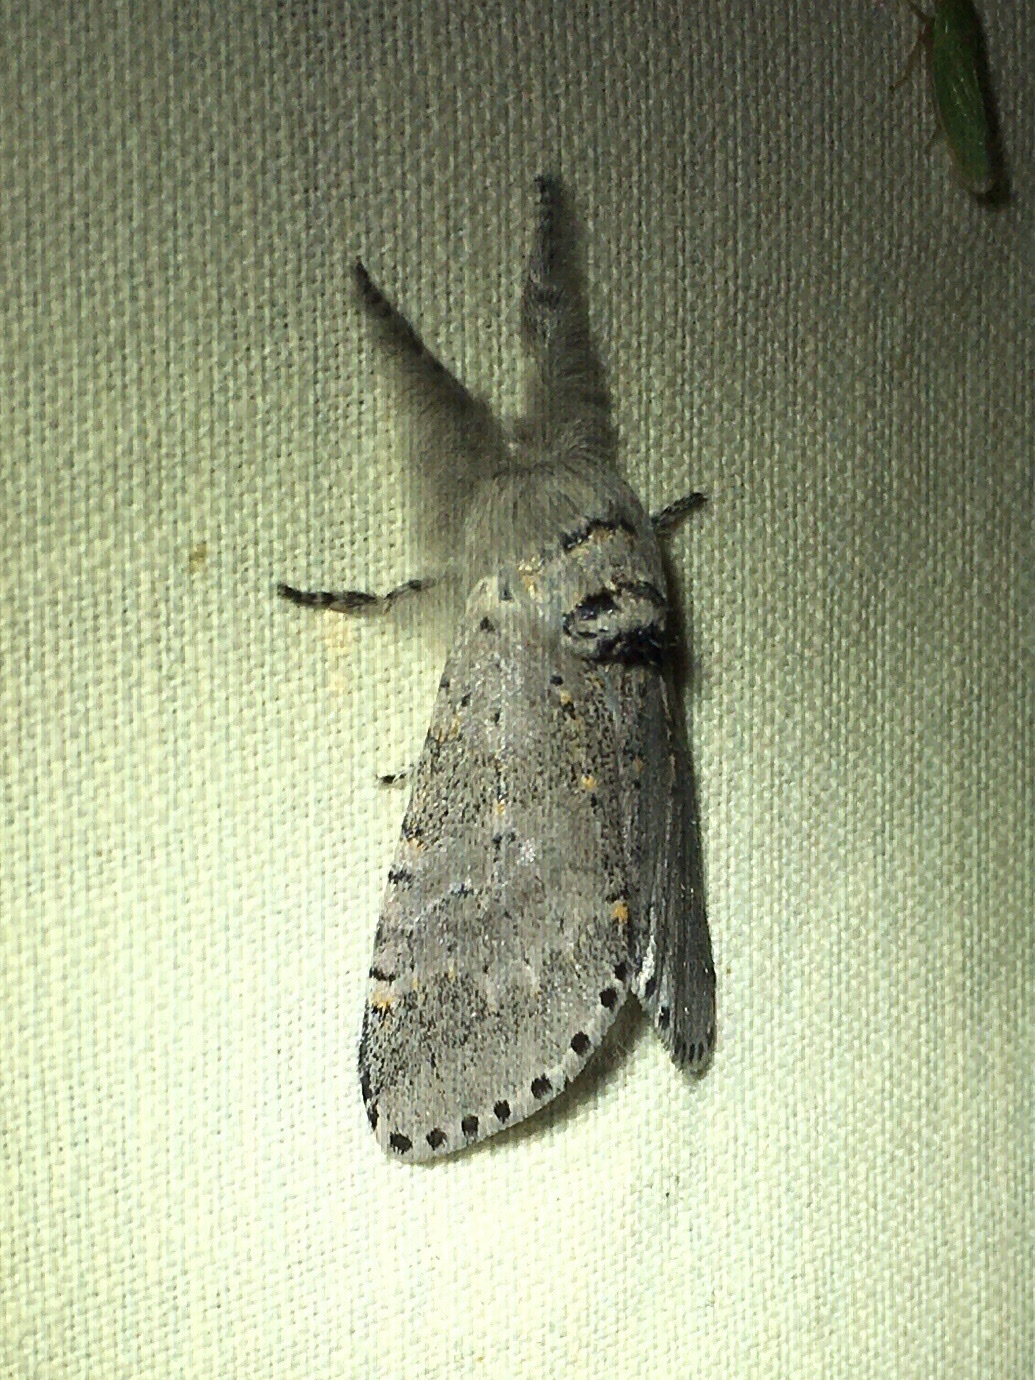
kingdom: Animalia
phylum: Arthropoda
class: Insecta
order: Lepidoptera
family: Notodontidae
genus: Furcula
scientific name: Furcula cinerea
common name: Gray furcula
